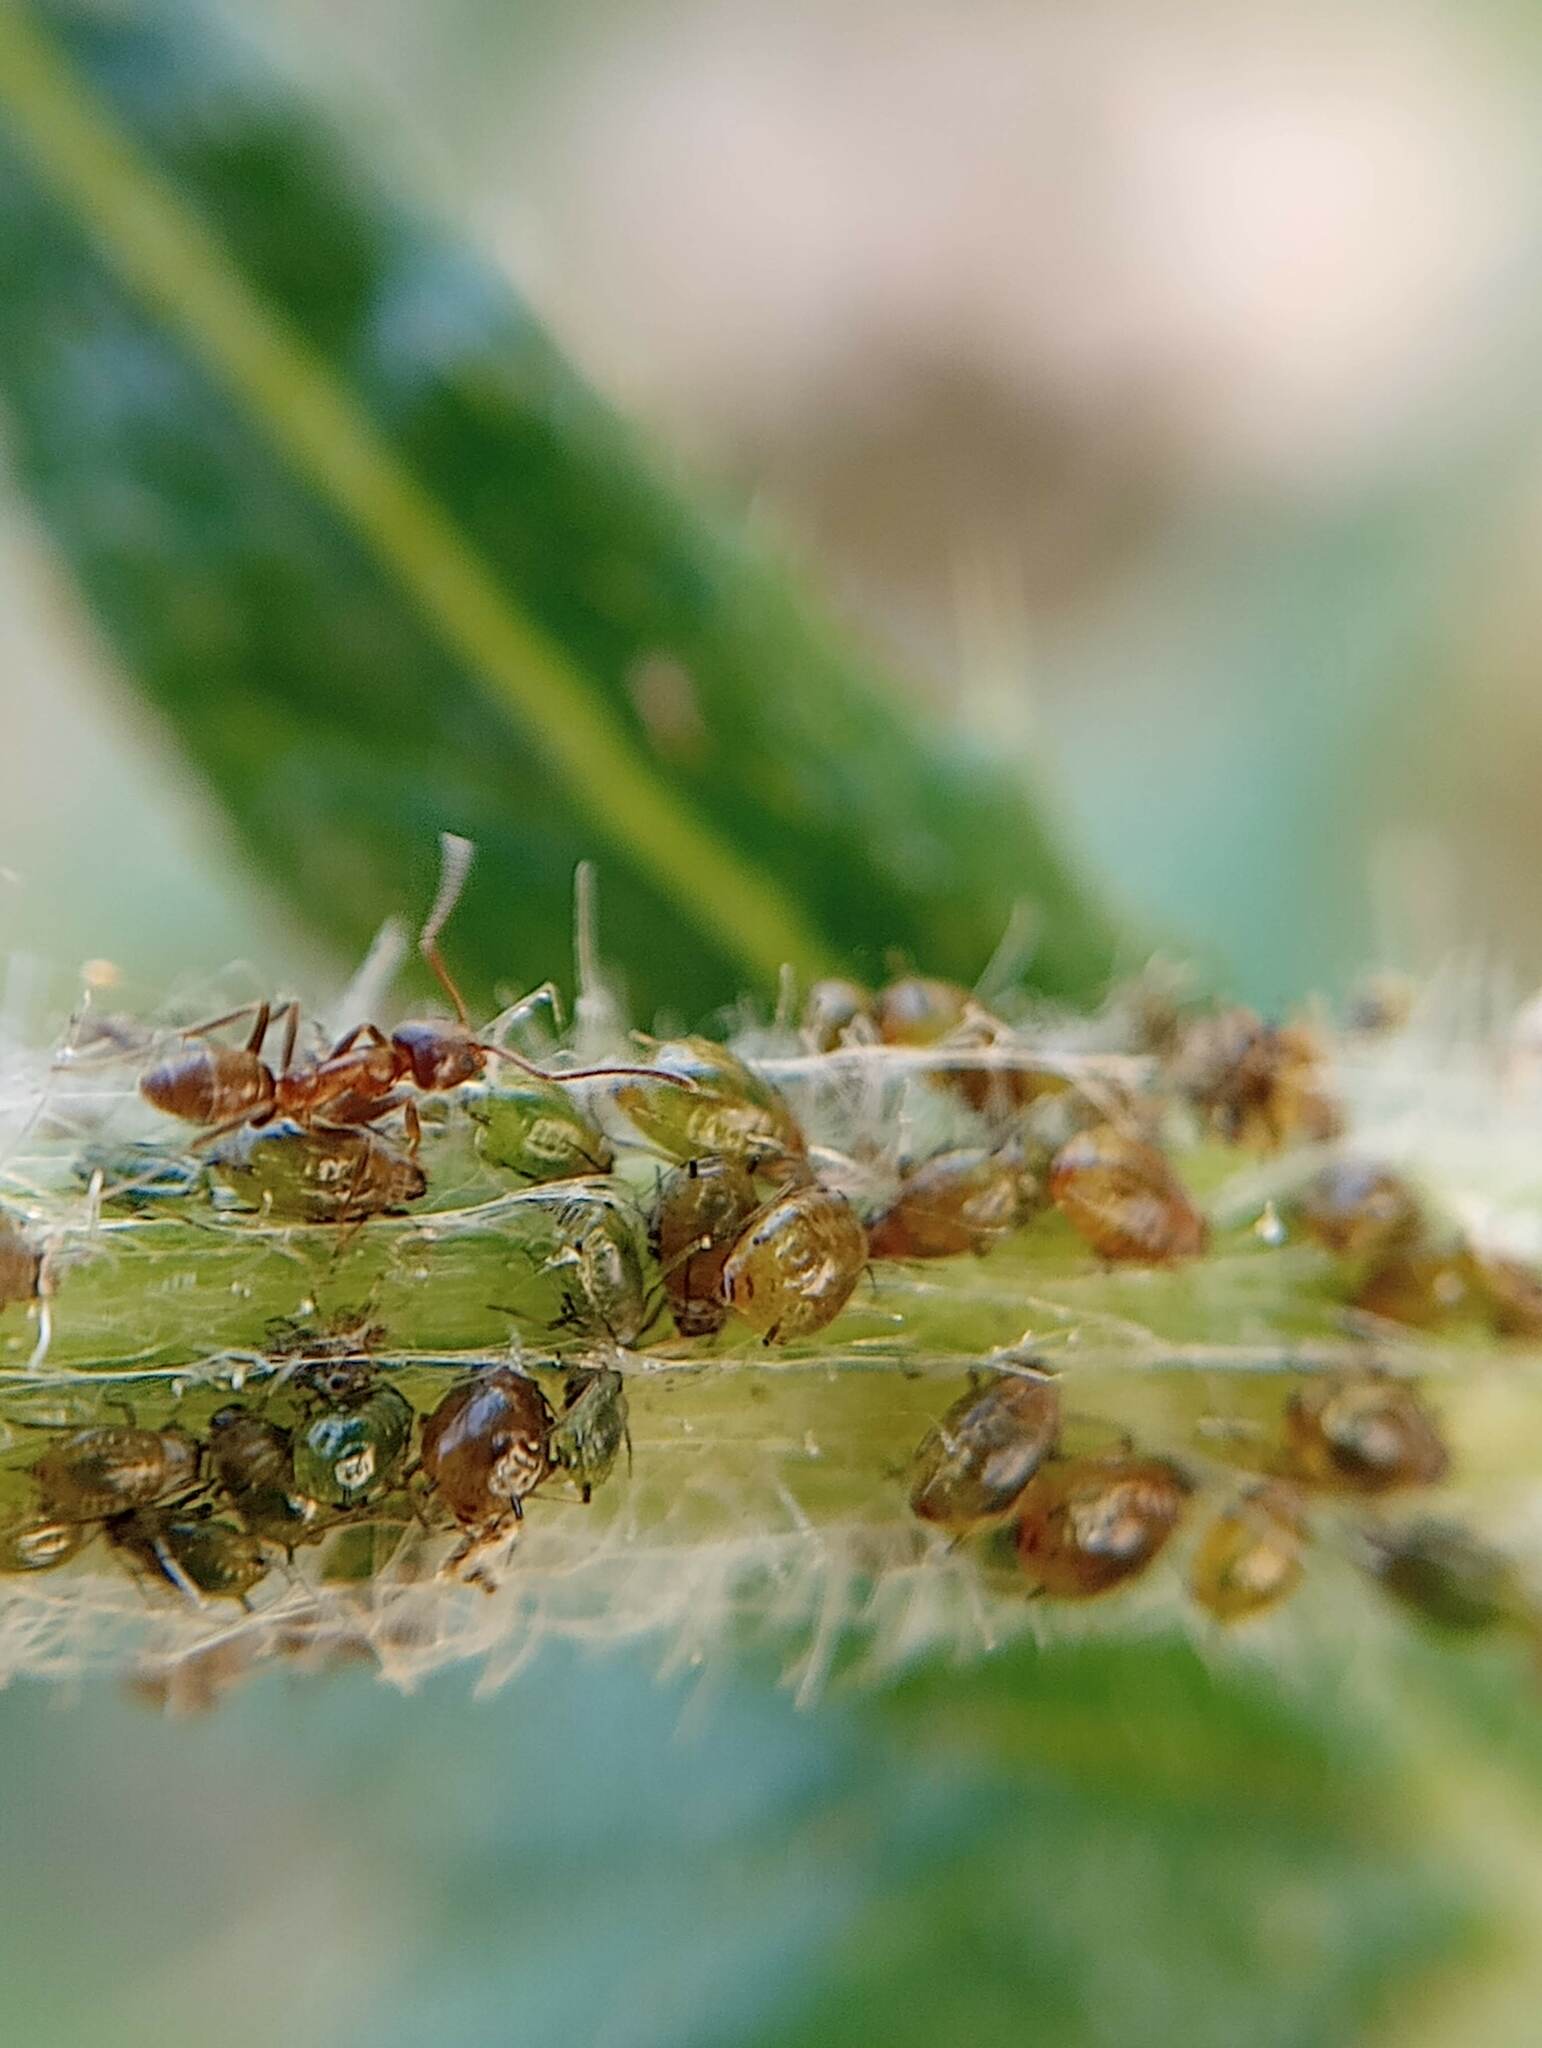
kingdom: Animalia
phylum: Arthropoda
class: Insecta
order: Hymenoptera
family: Formicidae
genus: Linepithema
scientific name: Linepithema humile
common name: Argentine ant
